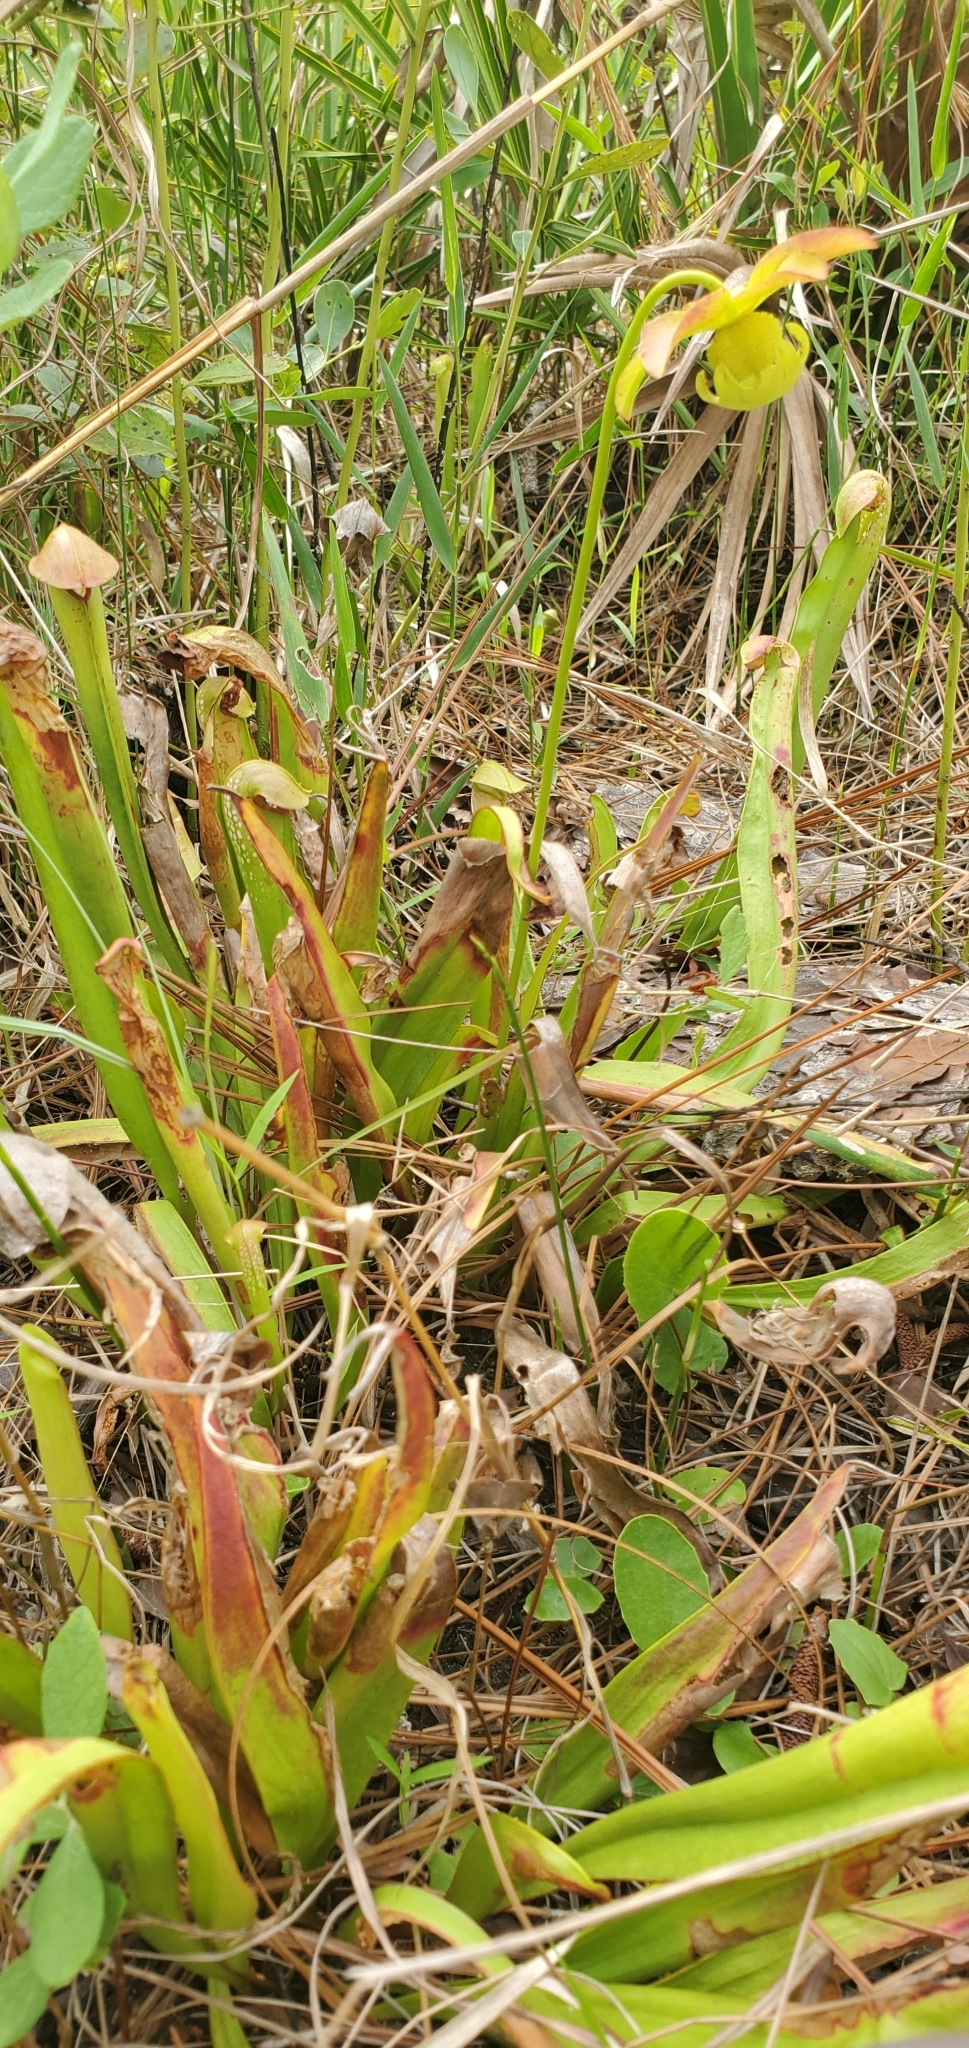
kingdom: Animalia
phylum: Arthropoda
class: Insecta
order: Lepidoptera
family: Noctuidae
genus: Exyra
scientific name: Exyra semicrocea
